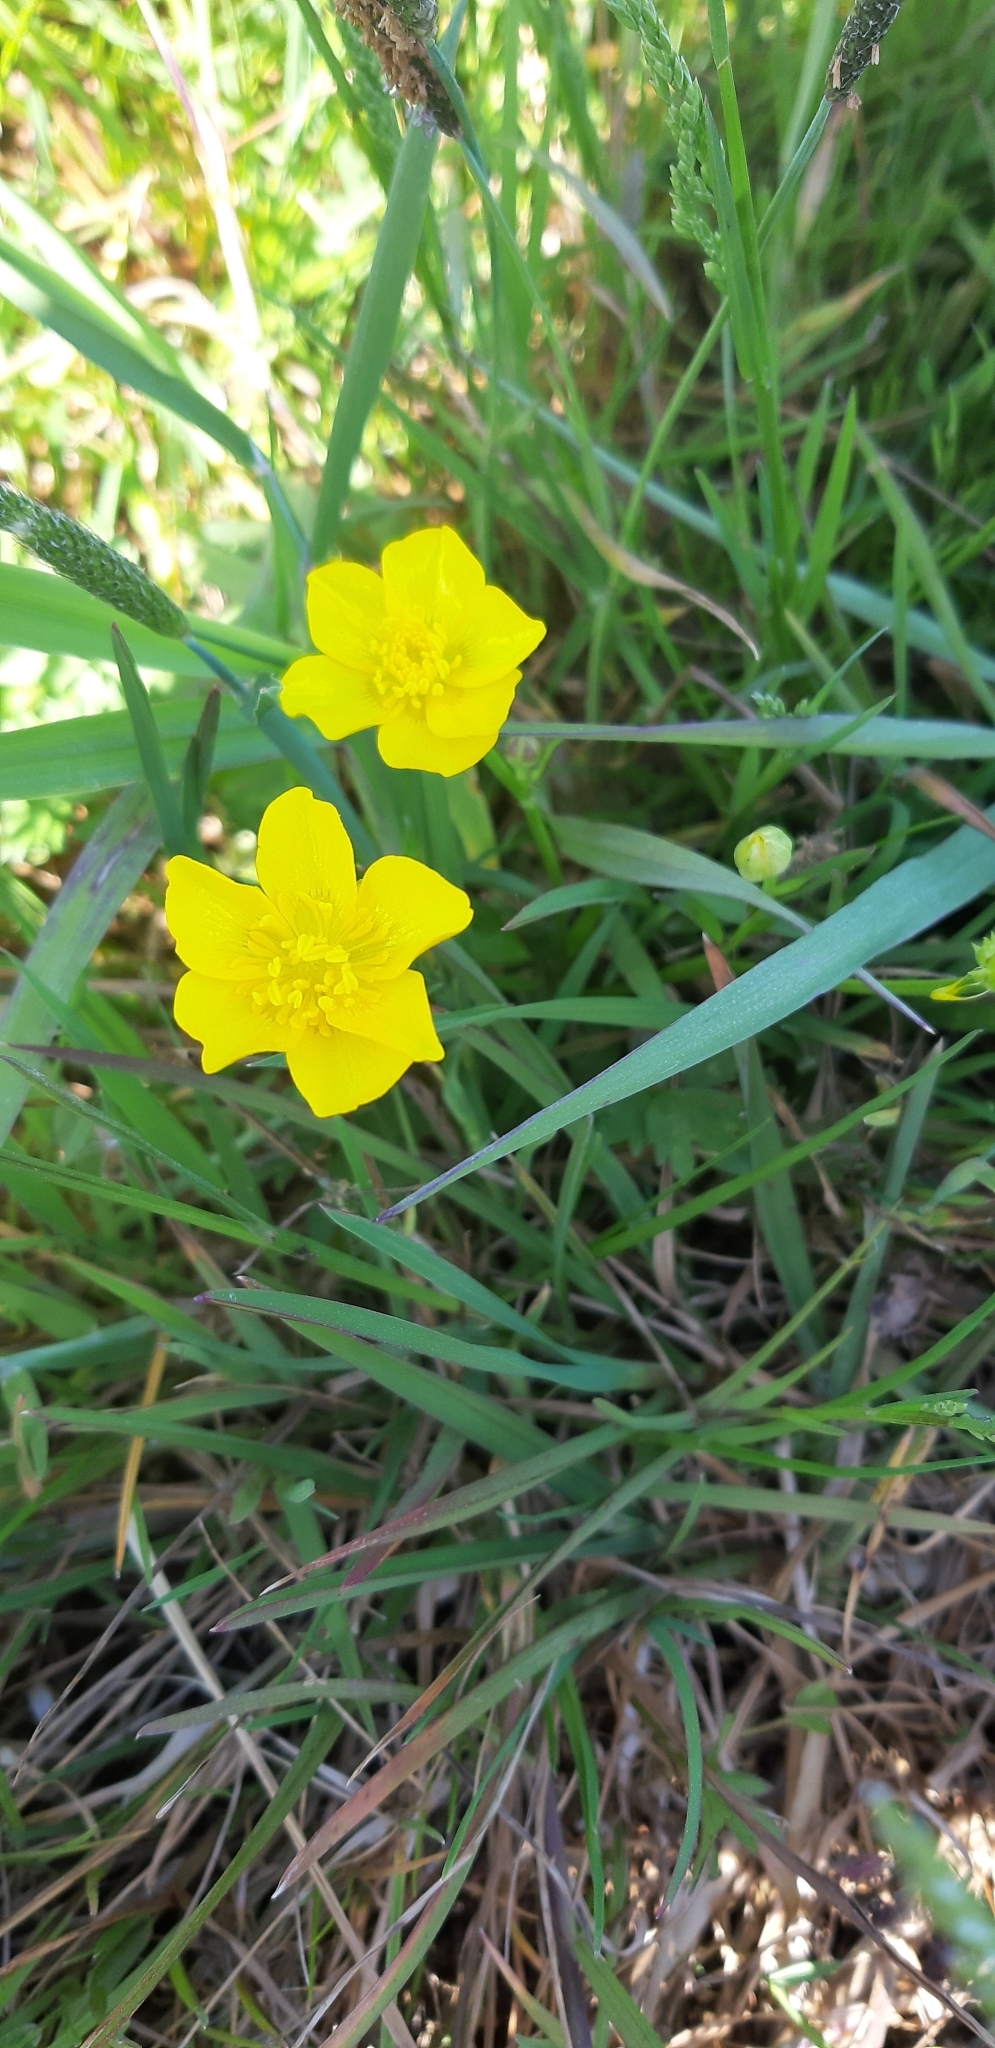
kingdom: Plantae
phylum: Tracheophyta
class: Magnoliopsida
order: Ranunculales
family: Ranunculaceae
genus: Ranunculus
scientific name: Ranunculus repens
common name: Creeping buttercup
